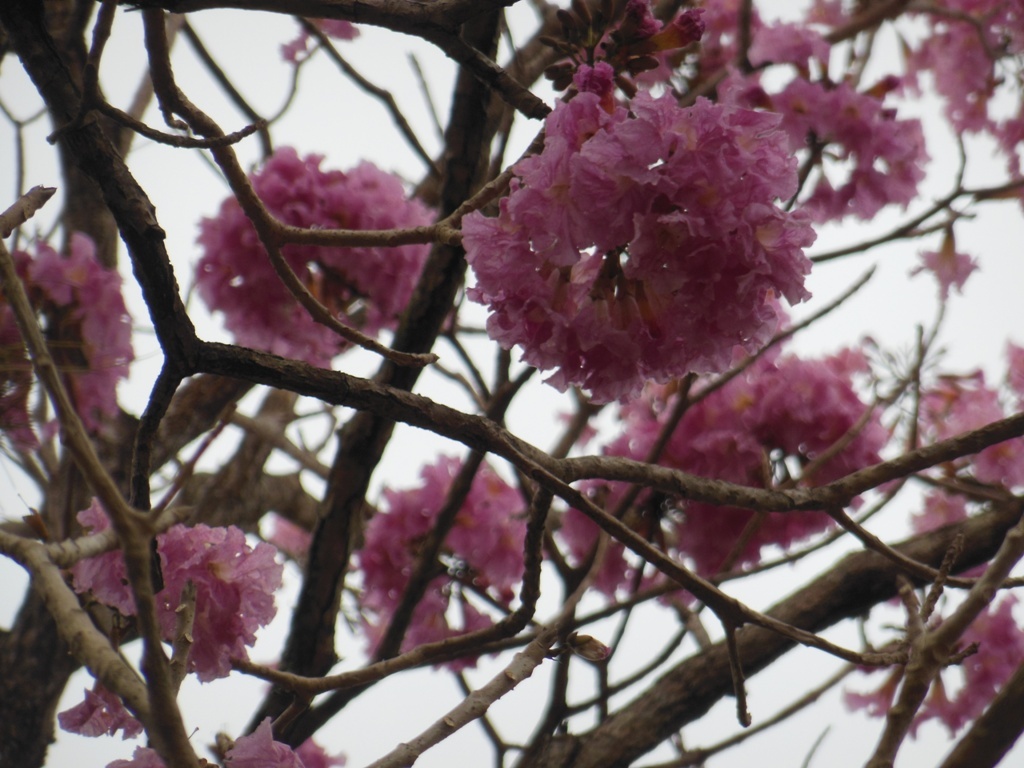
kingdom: Plantae
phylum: Tracheophyta
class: Magnoliopsida
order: Lamiales
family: Bignoniaceae
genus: Tabebuia
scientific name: Tabebuia rosea
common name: Pink poui
